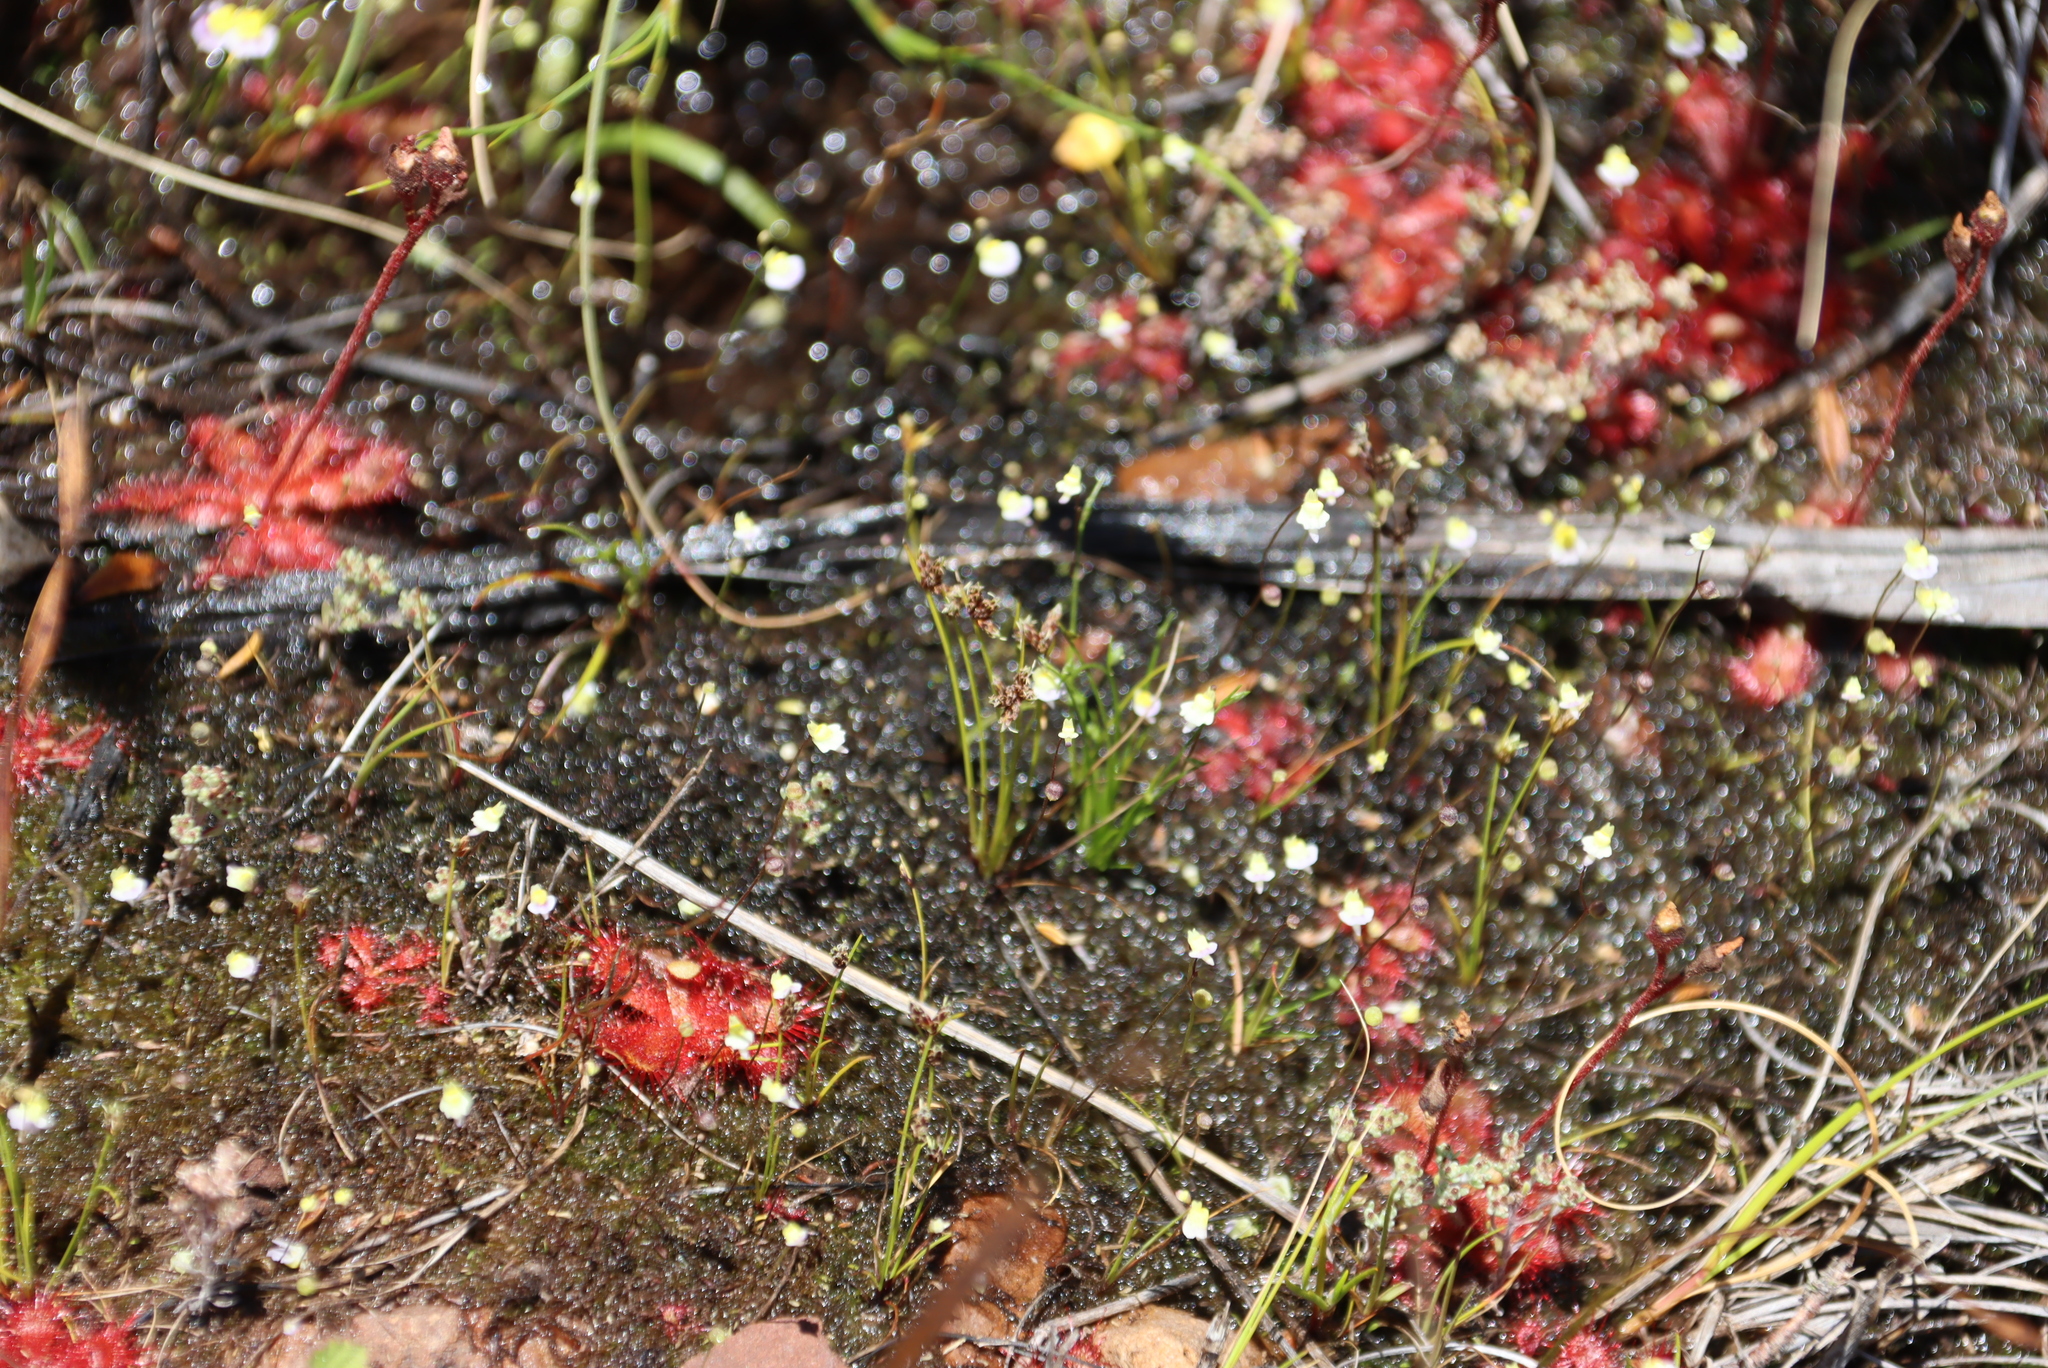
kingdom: Plantae
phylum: Tracheophyta
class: Magnoliopsida
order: Lamiales
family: Lentibulariaceae
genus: Utricularia
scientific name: Utricularia bisquamata
